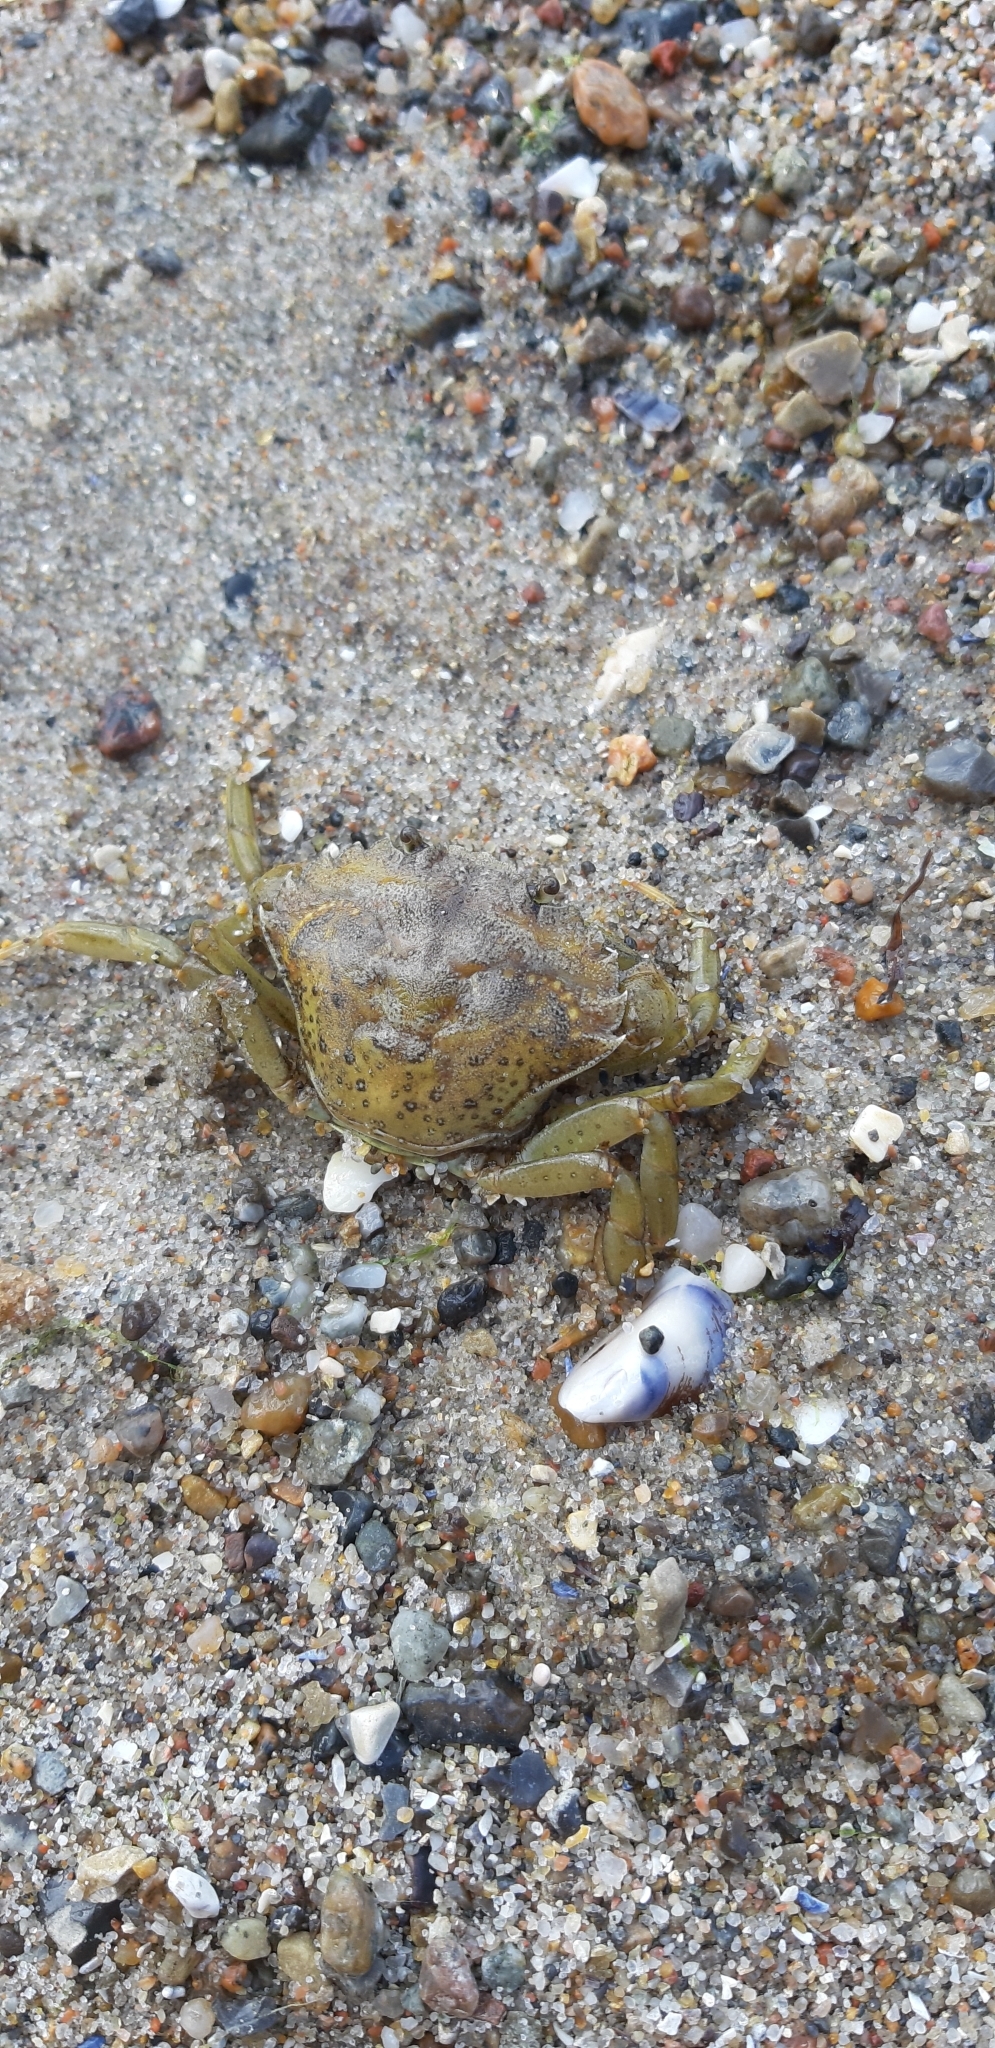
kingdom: Animalia
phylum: Arthropoda
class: Malacostraca
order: Decapoda
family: Carcinidae
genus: Carcinus
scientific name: Carcinus maenas
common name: European green crab
